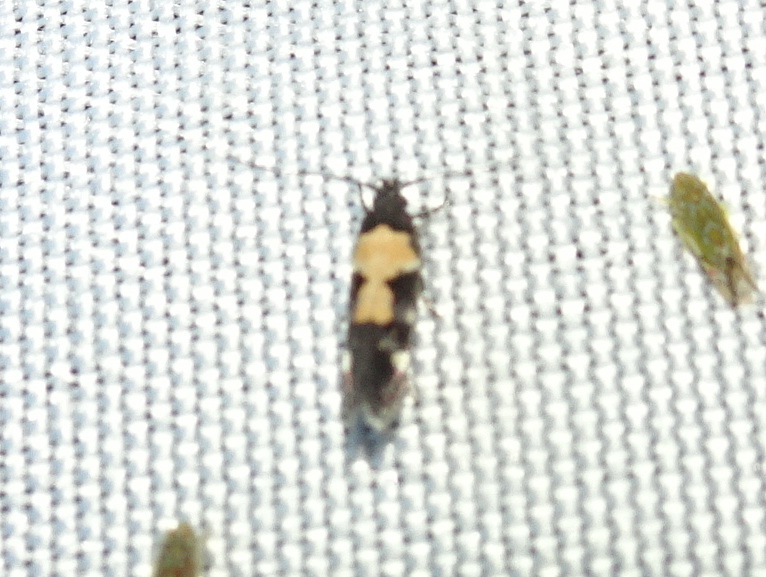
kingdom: Animalia
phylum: Arthropoda
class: Insecta
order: Lepidoptera
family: Gelechiidae
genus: Stegasta
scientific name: Stegasta bosqueella
